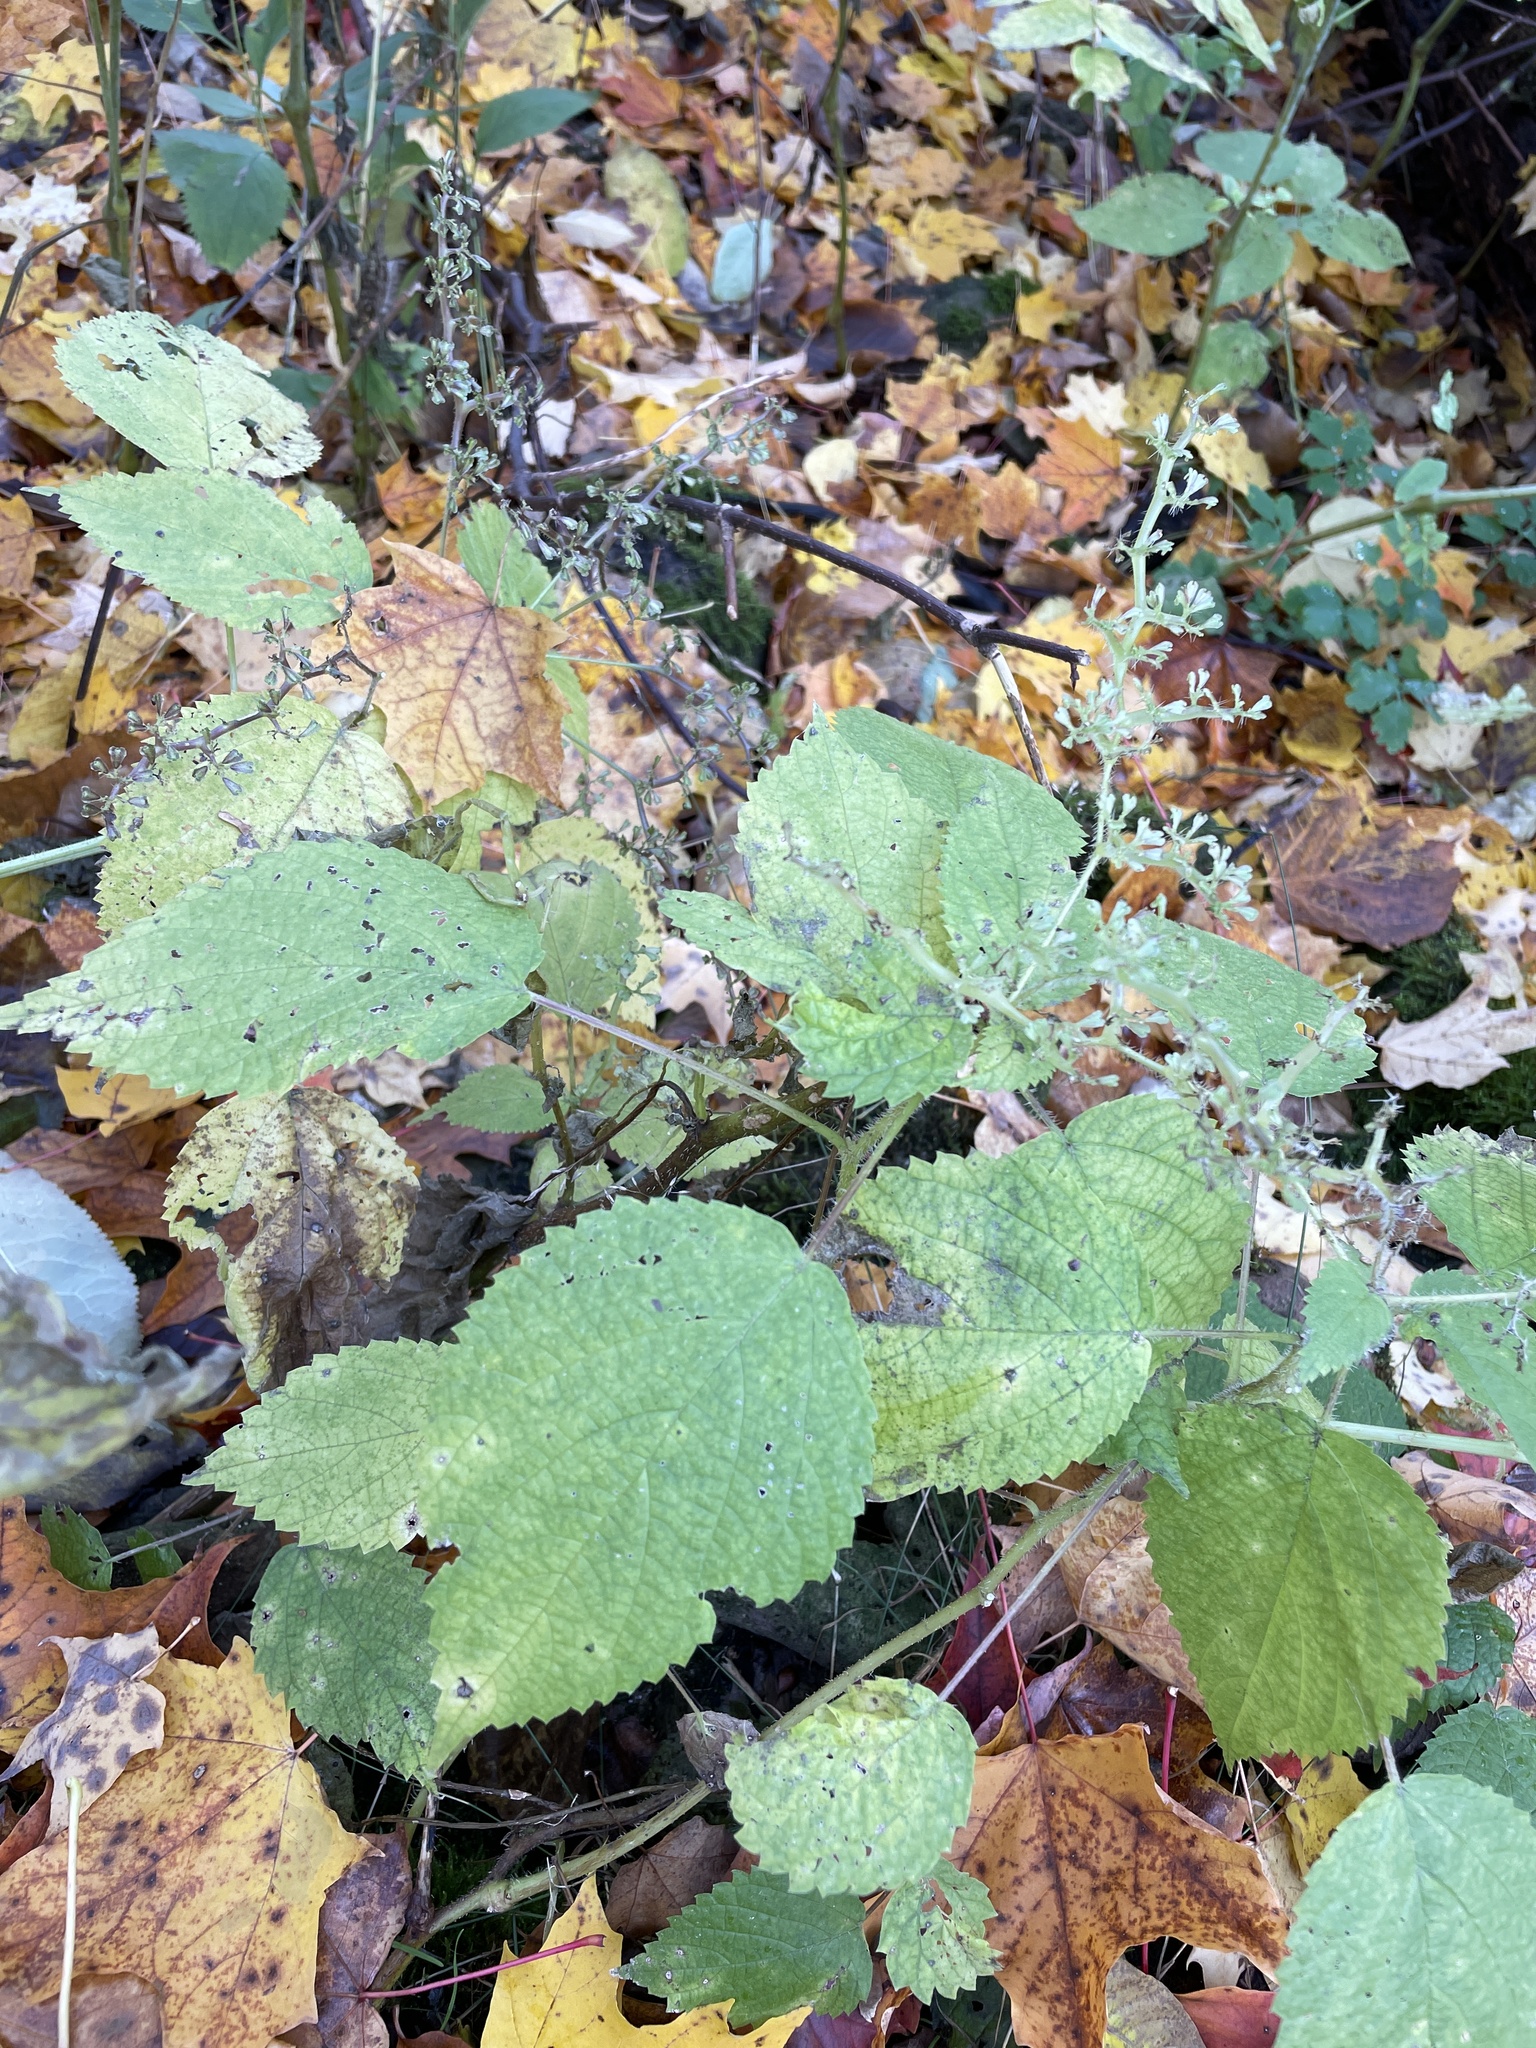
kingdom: Plantae
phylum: Tracheophyta
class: Magnoliopsida
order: Rosales
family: Urticaceae
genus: Laportea
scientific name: Laportea canadensis
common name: Canada nettle
